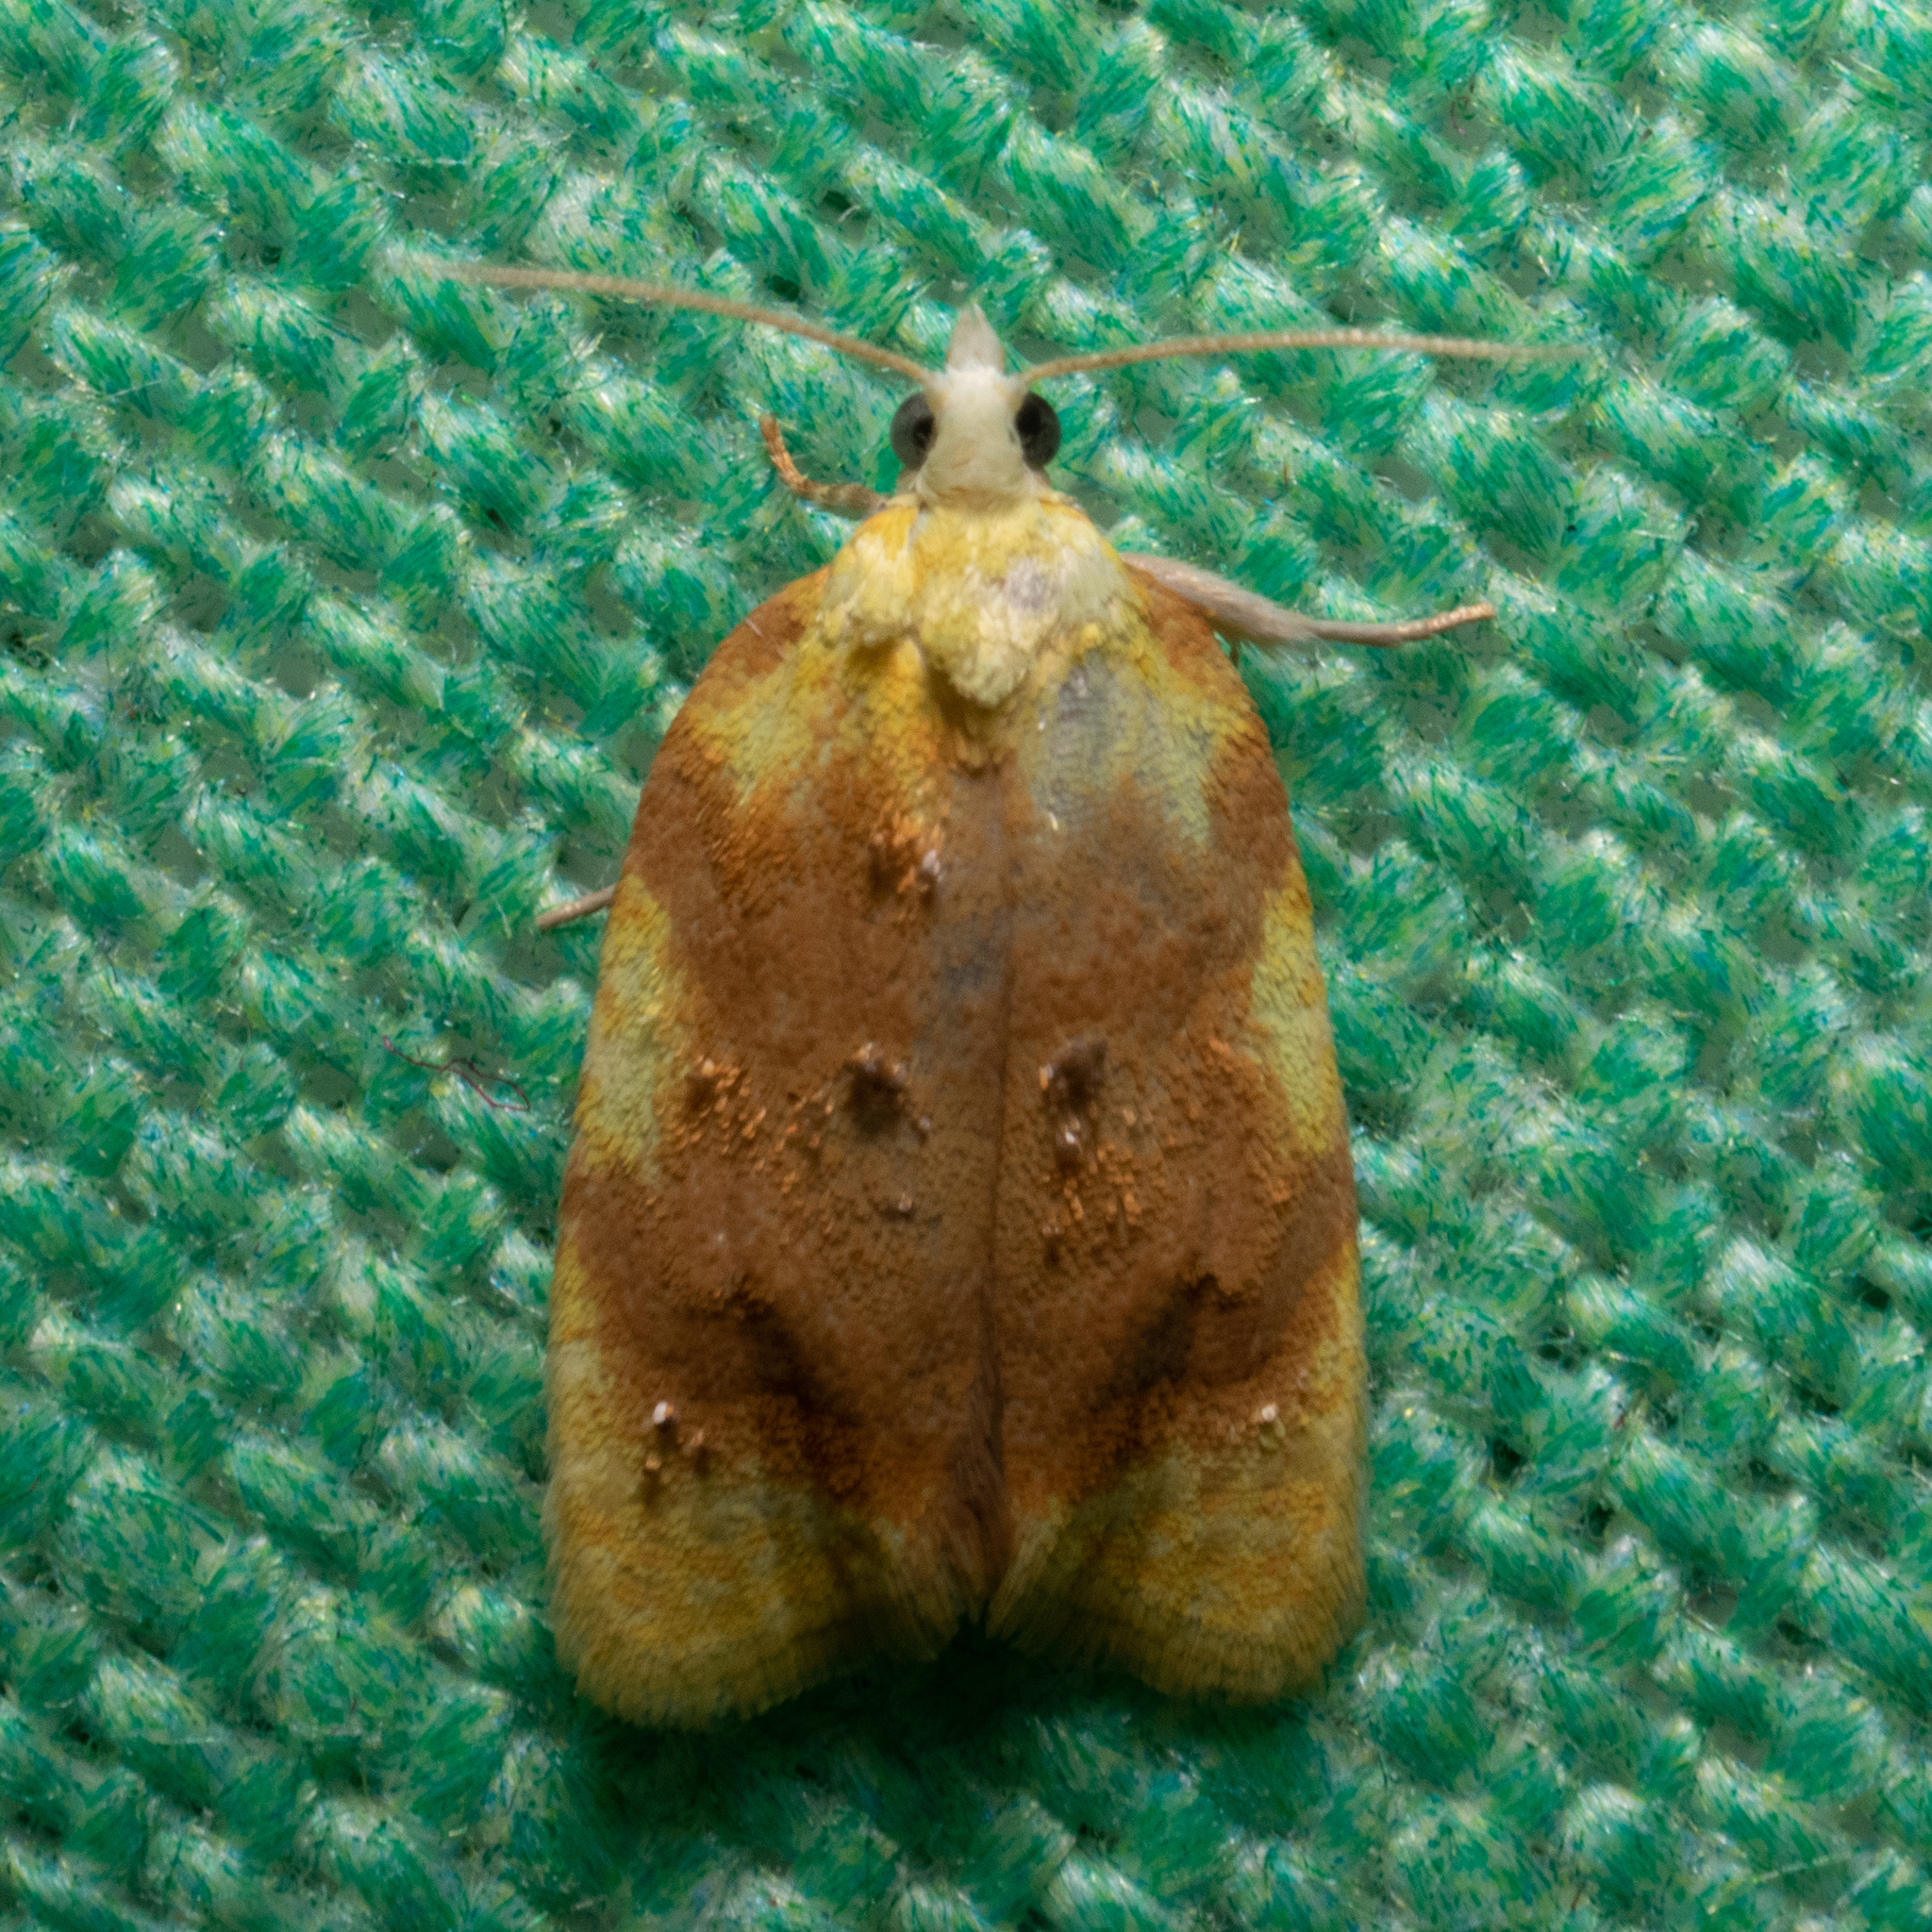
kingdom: Animalia
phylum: Arthropoda
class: Insecta
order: Lepidoptera
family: Tortricidae
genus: Acleris
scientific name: Acleris semipurpurana
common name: Oak leaftier moth
